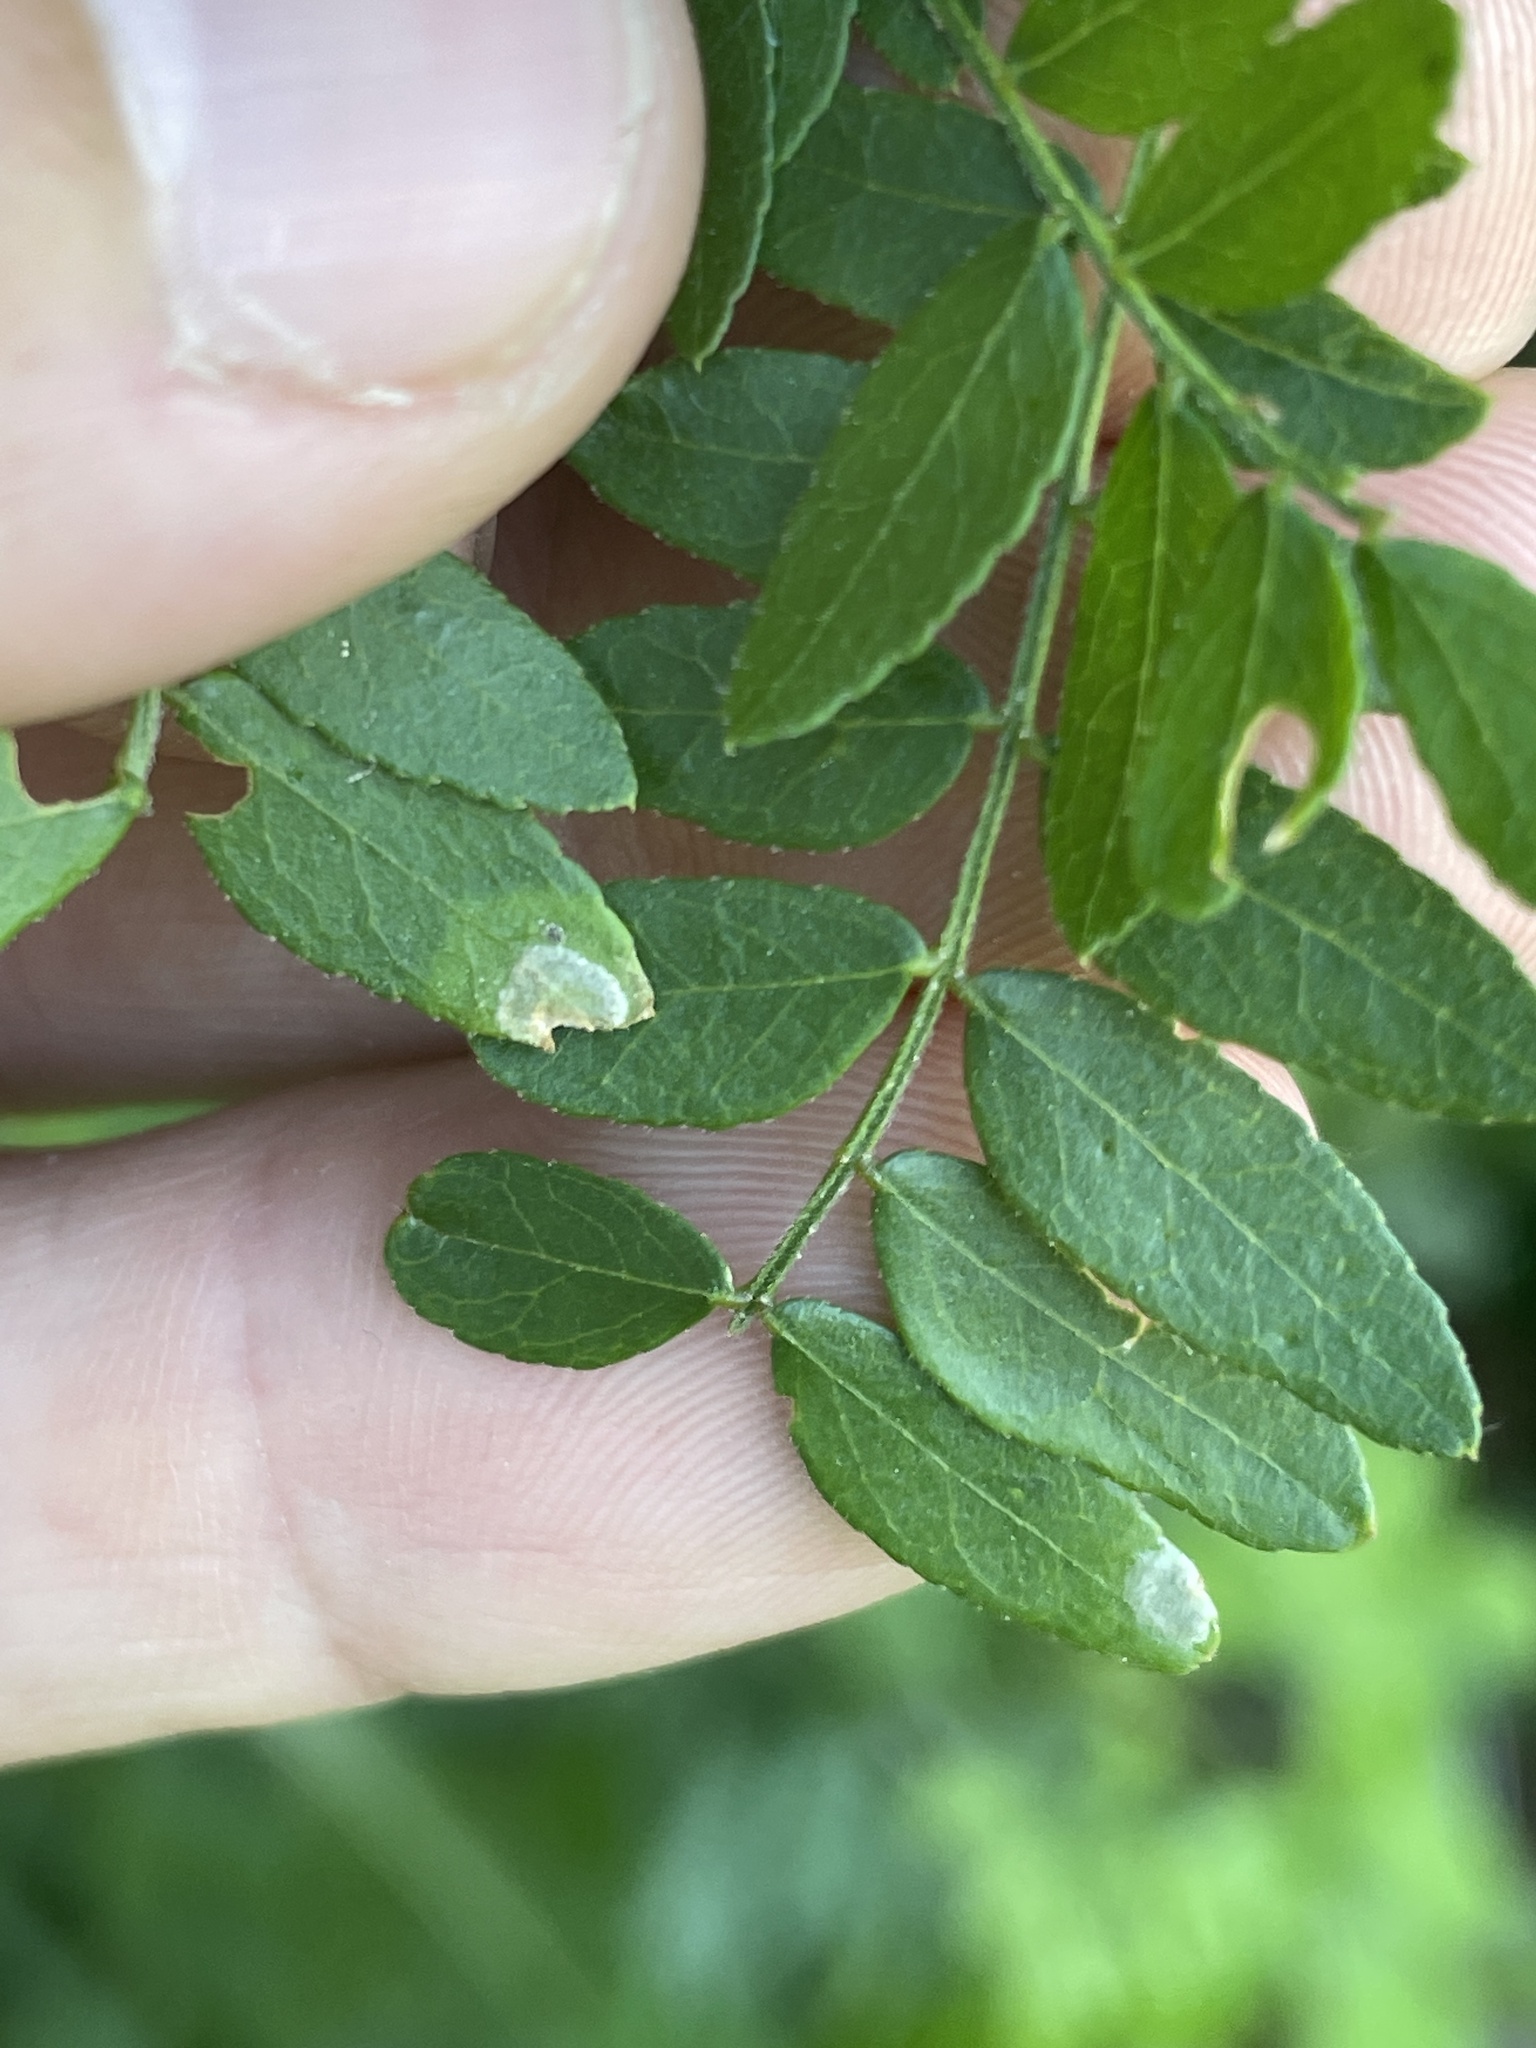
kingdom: Animalia
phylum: Arthropoda
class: Insecta
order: Diptera
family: Cecidomyiidae
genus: Meunieriella
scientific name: Meunieriella aquilonia
